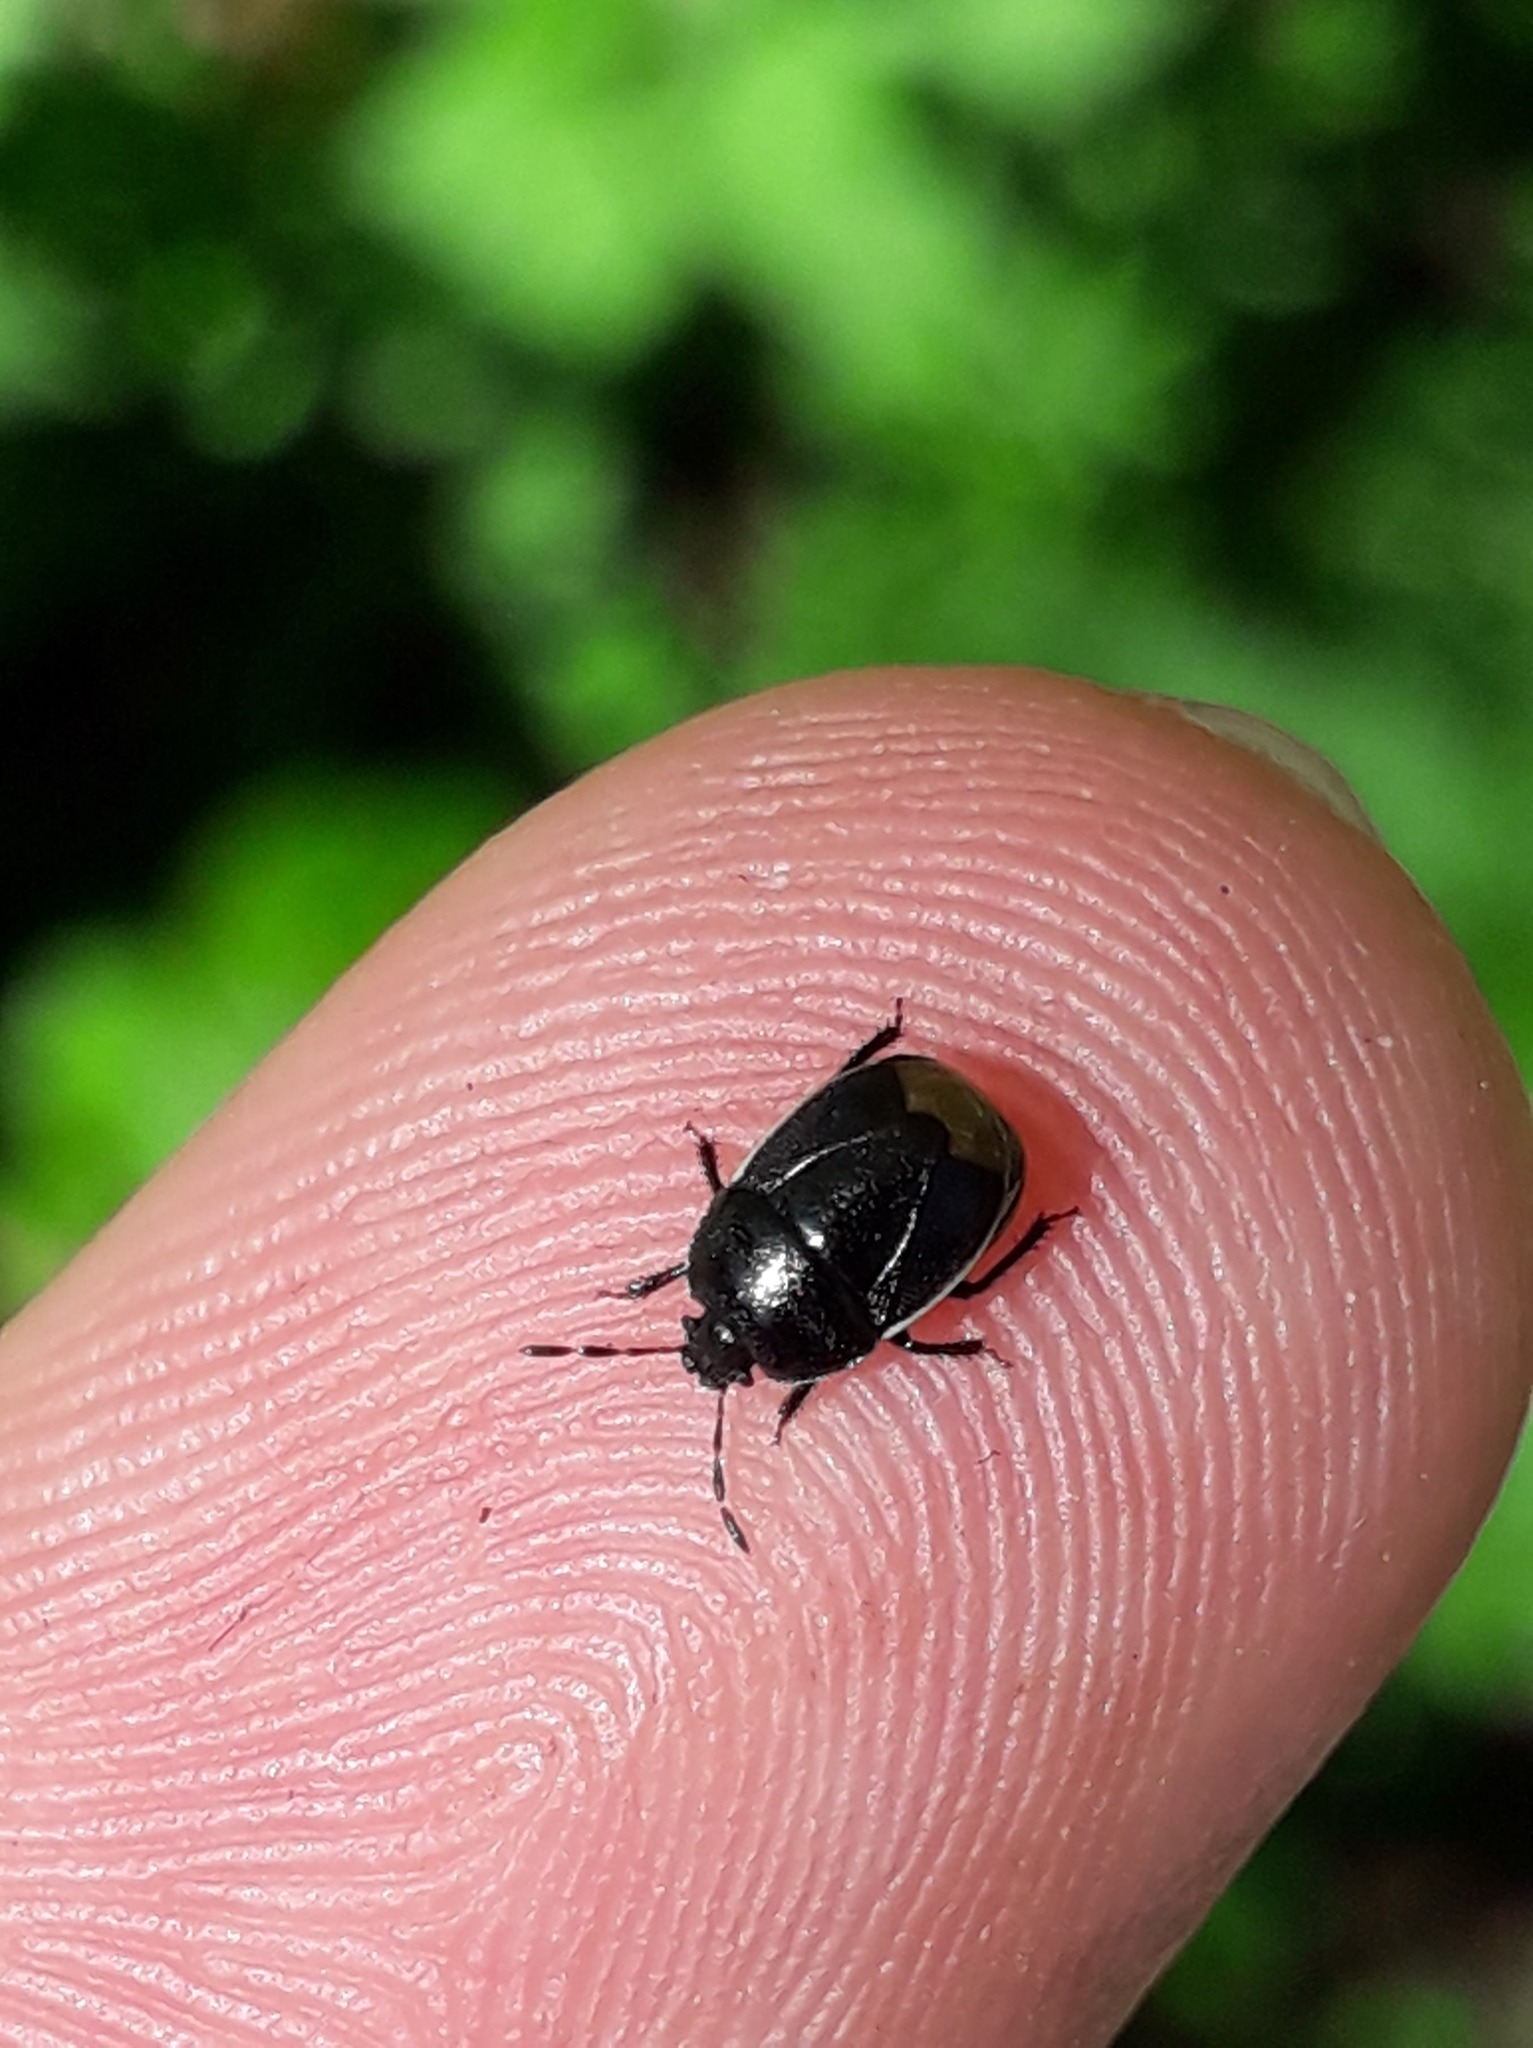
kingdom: Animalia
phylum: Arthropoda
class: Insecta
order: Hemiptera
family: Cydnidae
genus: Legnotus
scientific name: Legnotus limbosus
